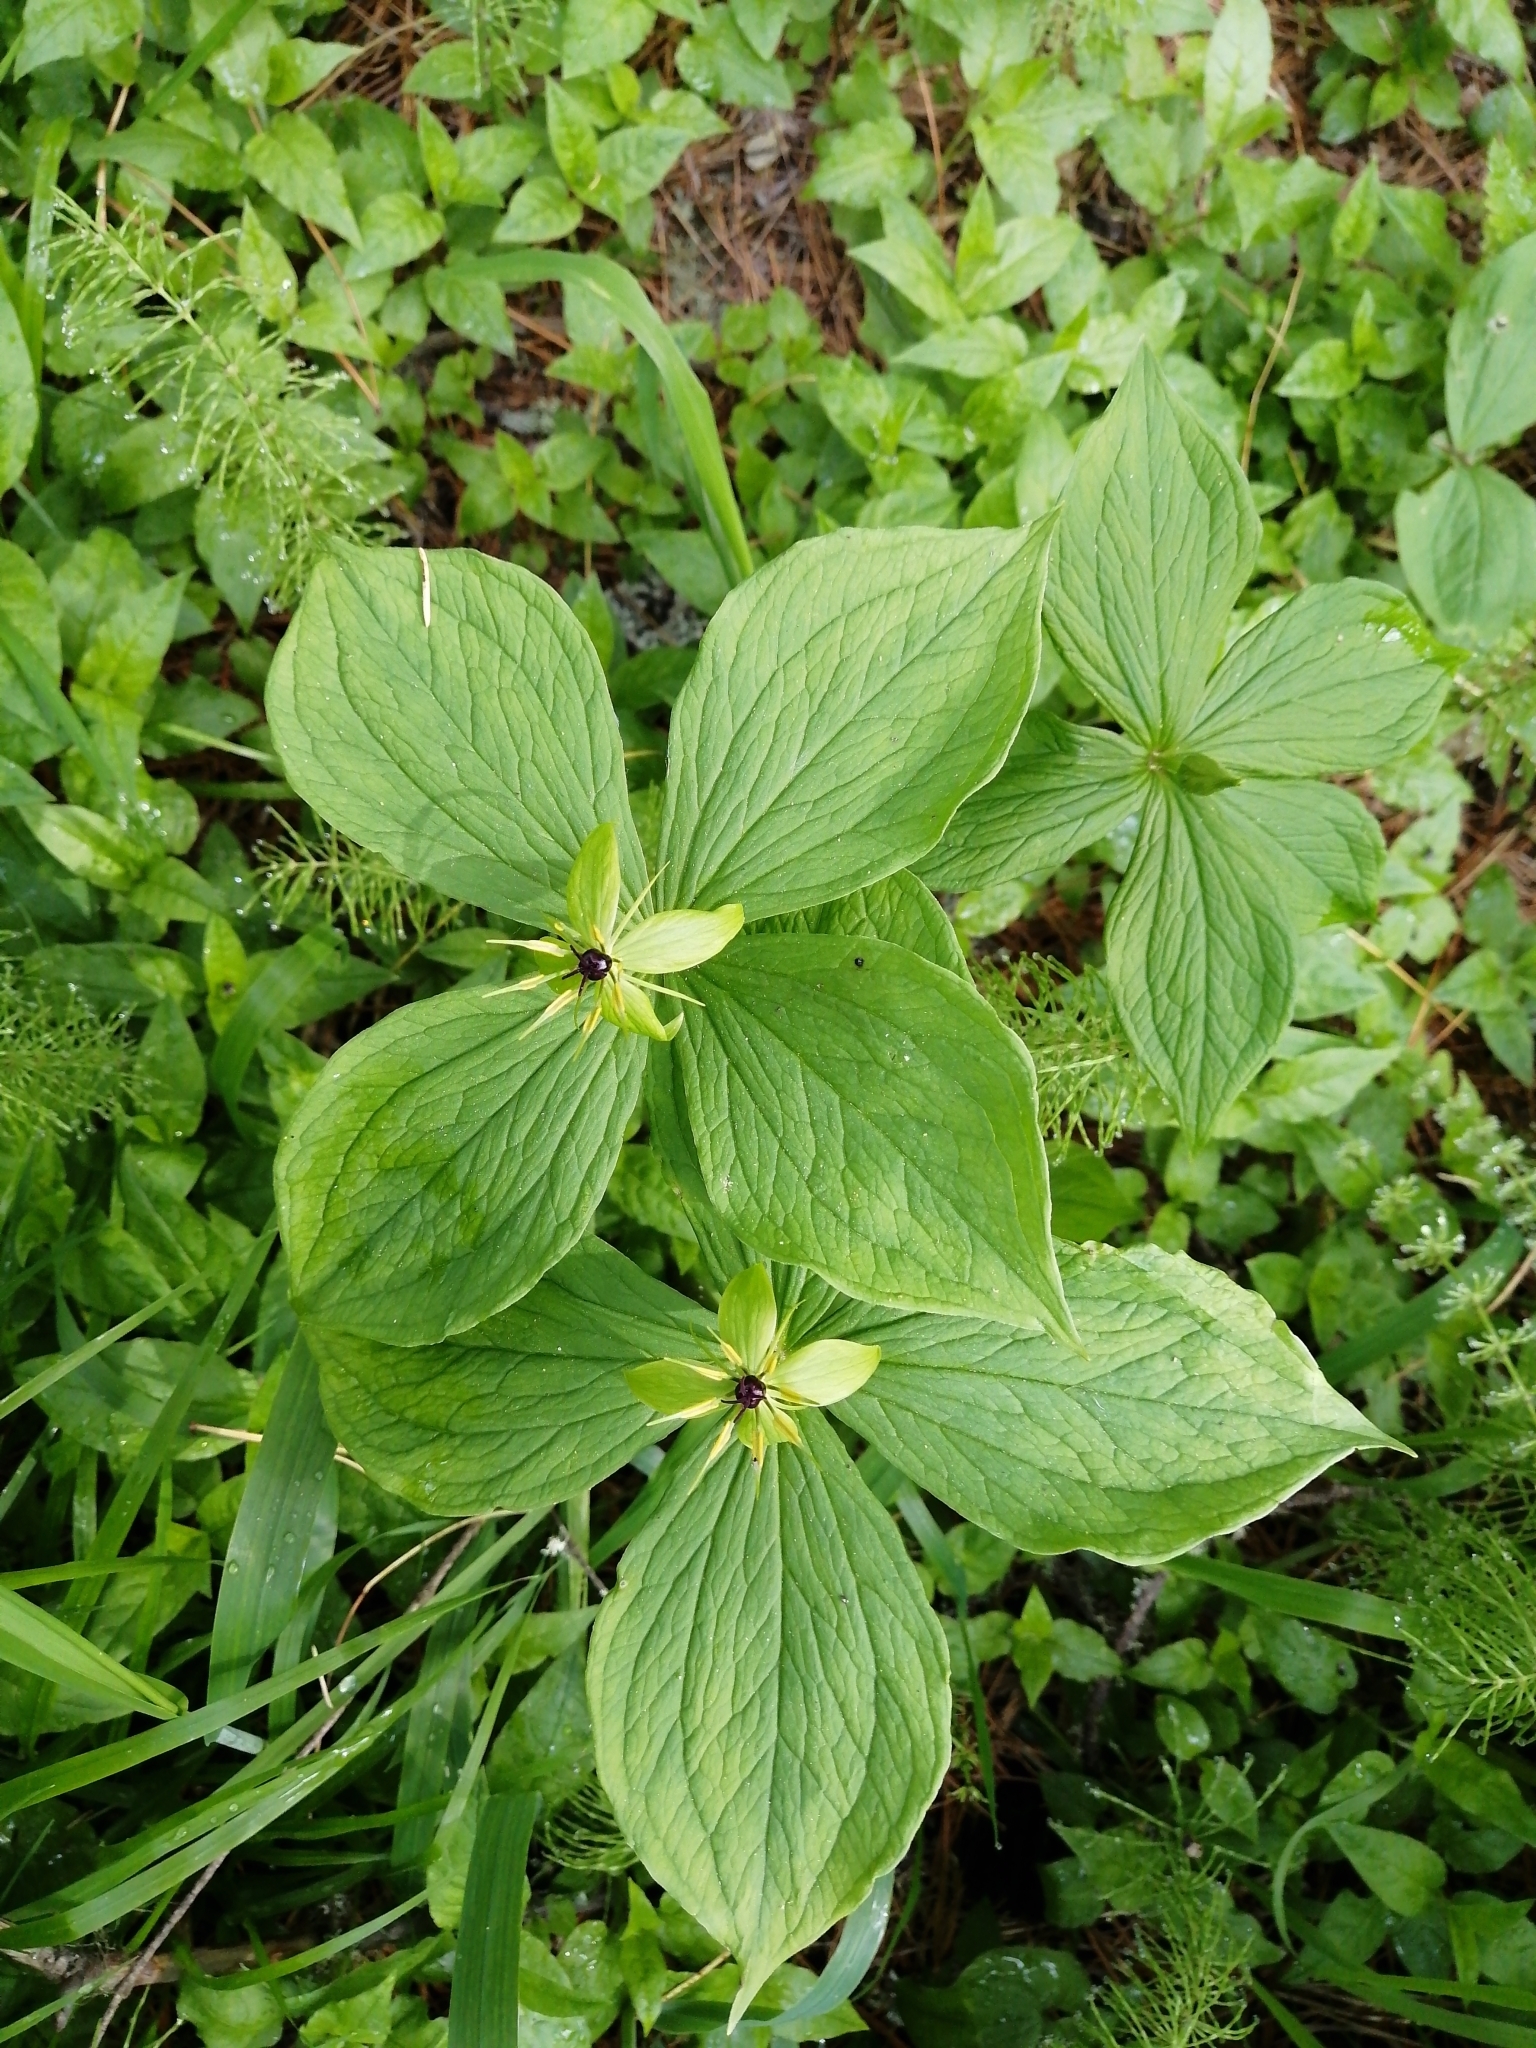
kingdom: Plantae
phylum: Tracheophyta
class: Liliopsida
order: Liliales
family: Melanthiaceae
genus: Paris
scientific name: Paris quadrifolia
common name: Herb-paris
